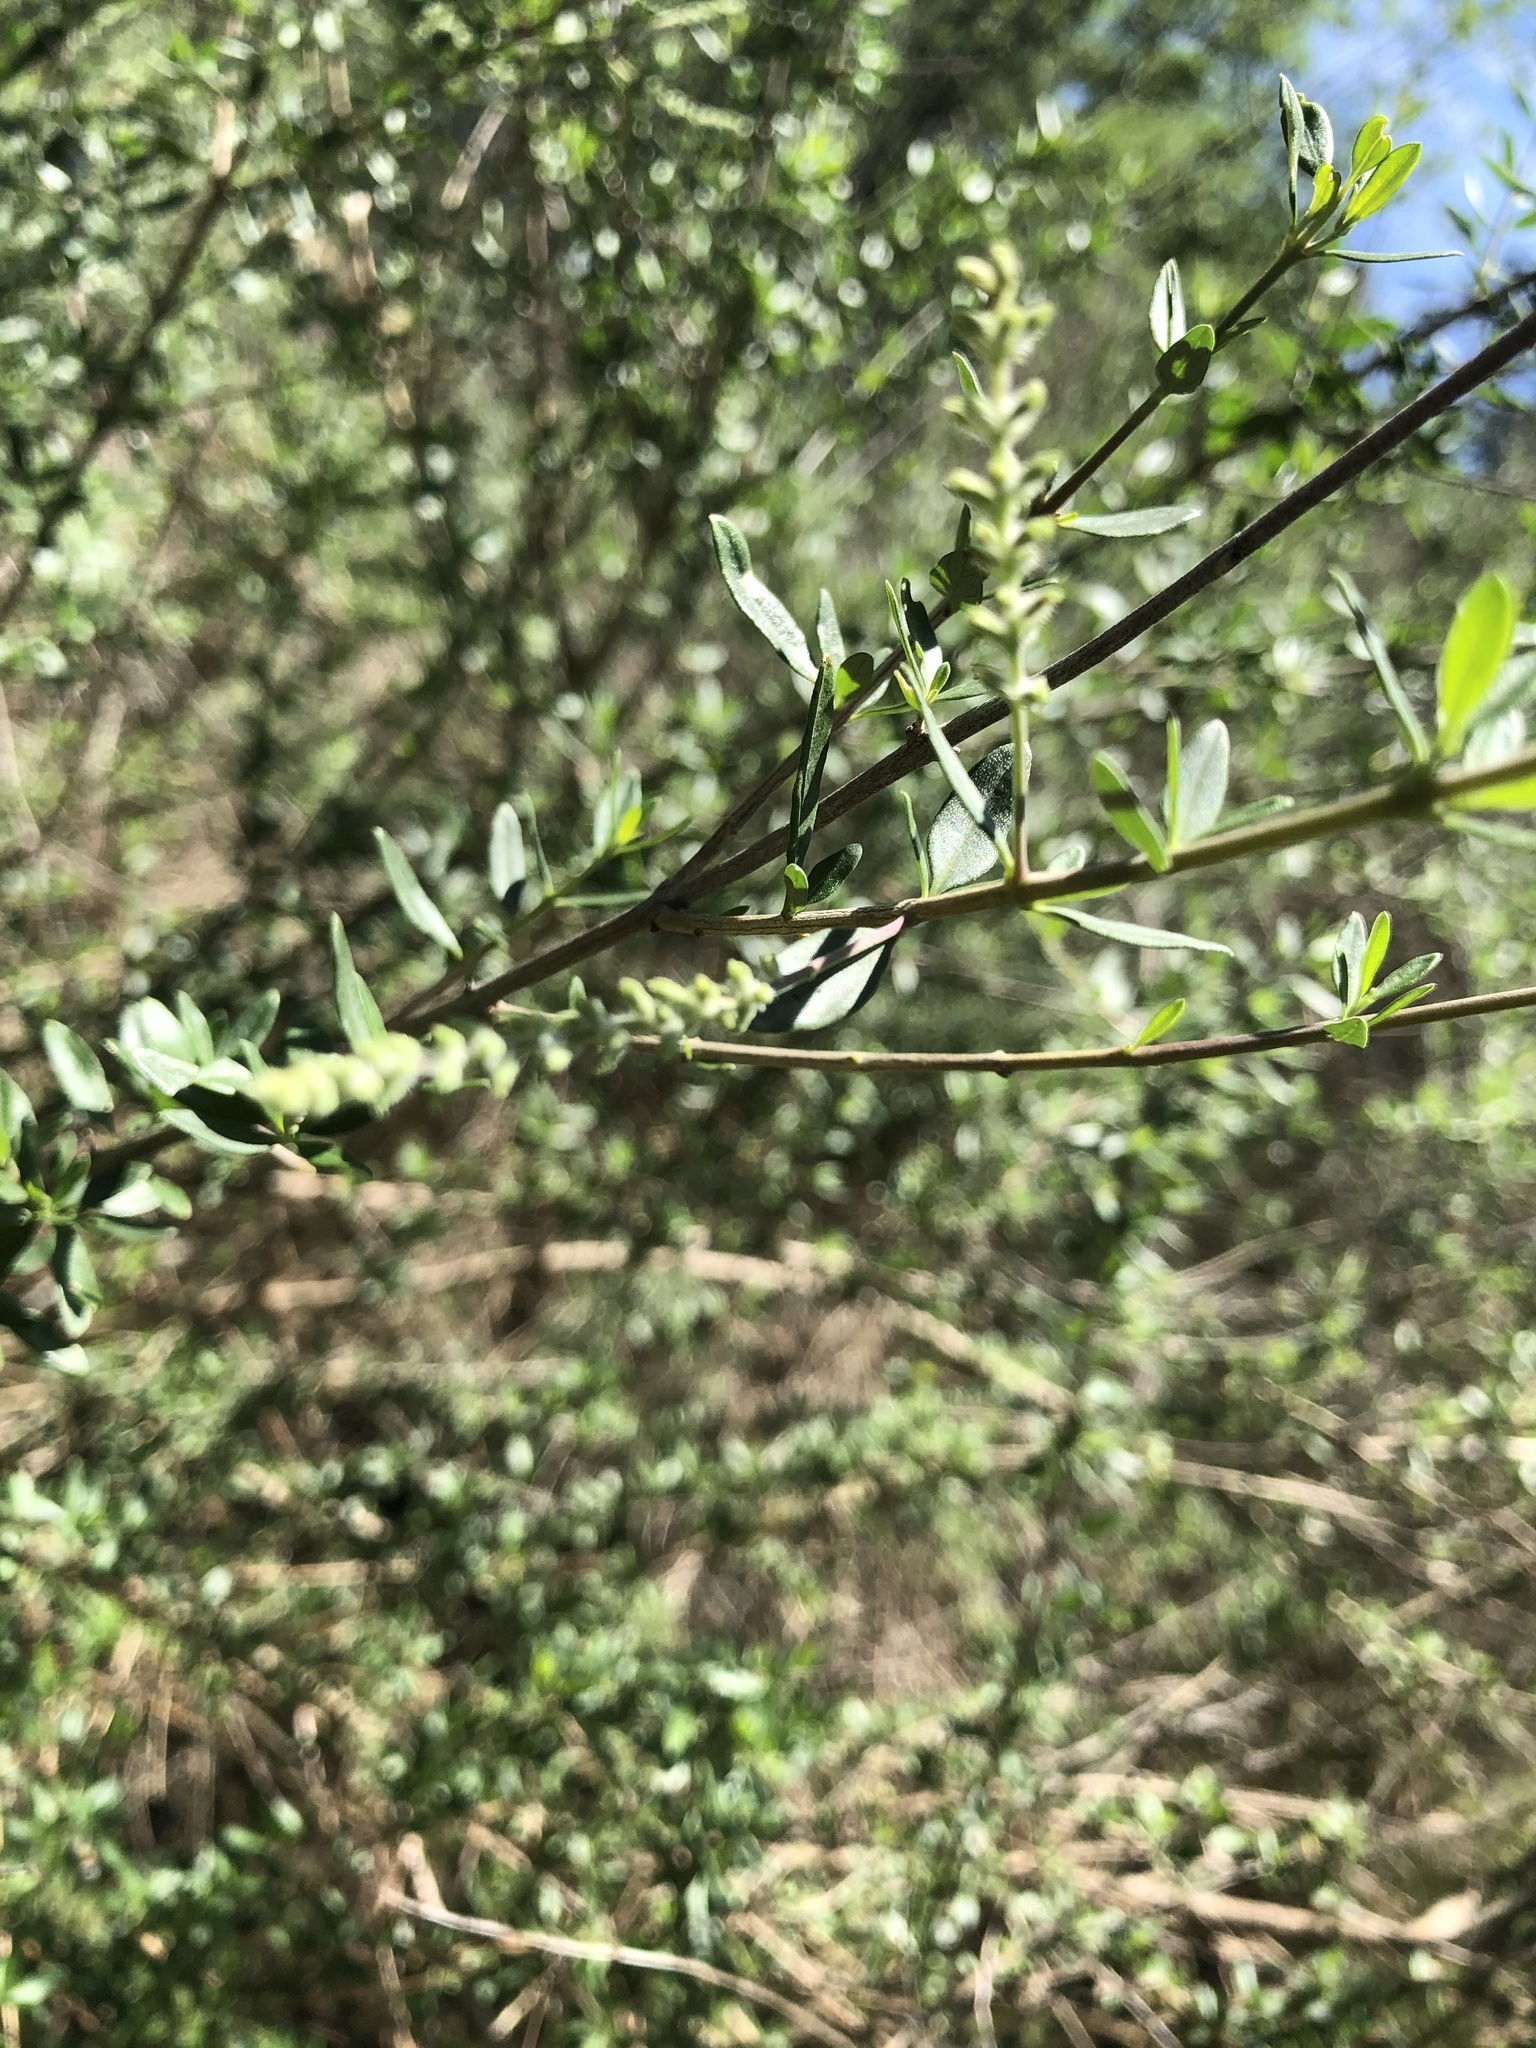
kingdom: Plantae
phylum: Tracheophyta
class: Magnoliopsida
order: Lamiales
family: Verbenaceae
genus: Aloysia
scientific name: Aloysia gratissima
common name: Common bee-brush
